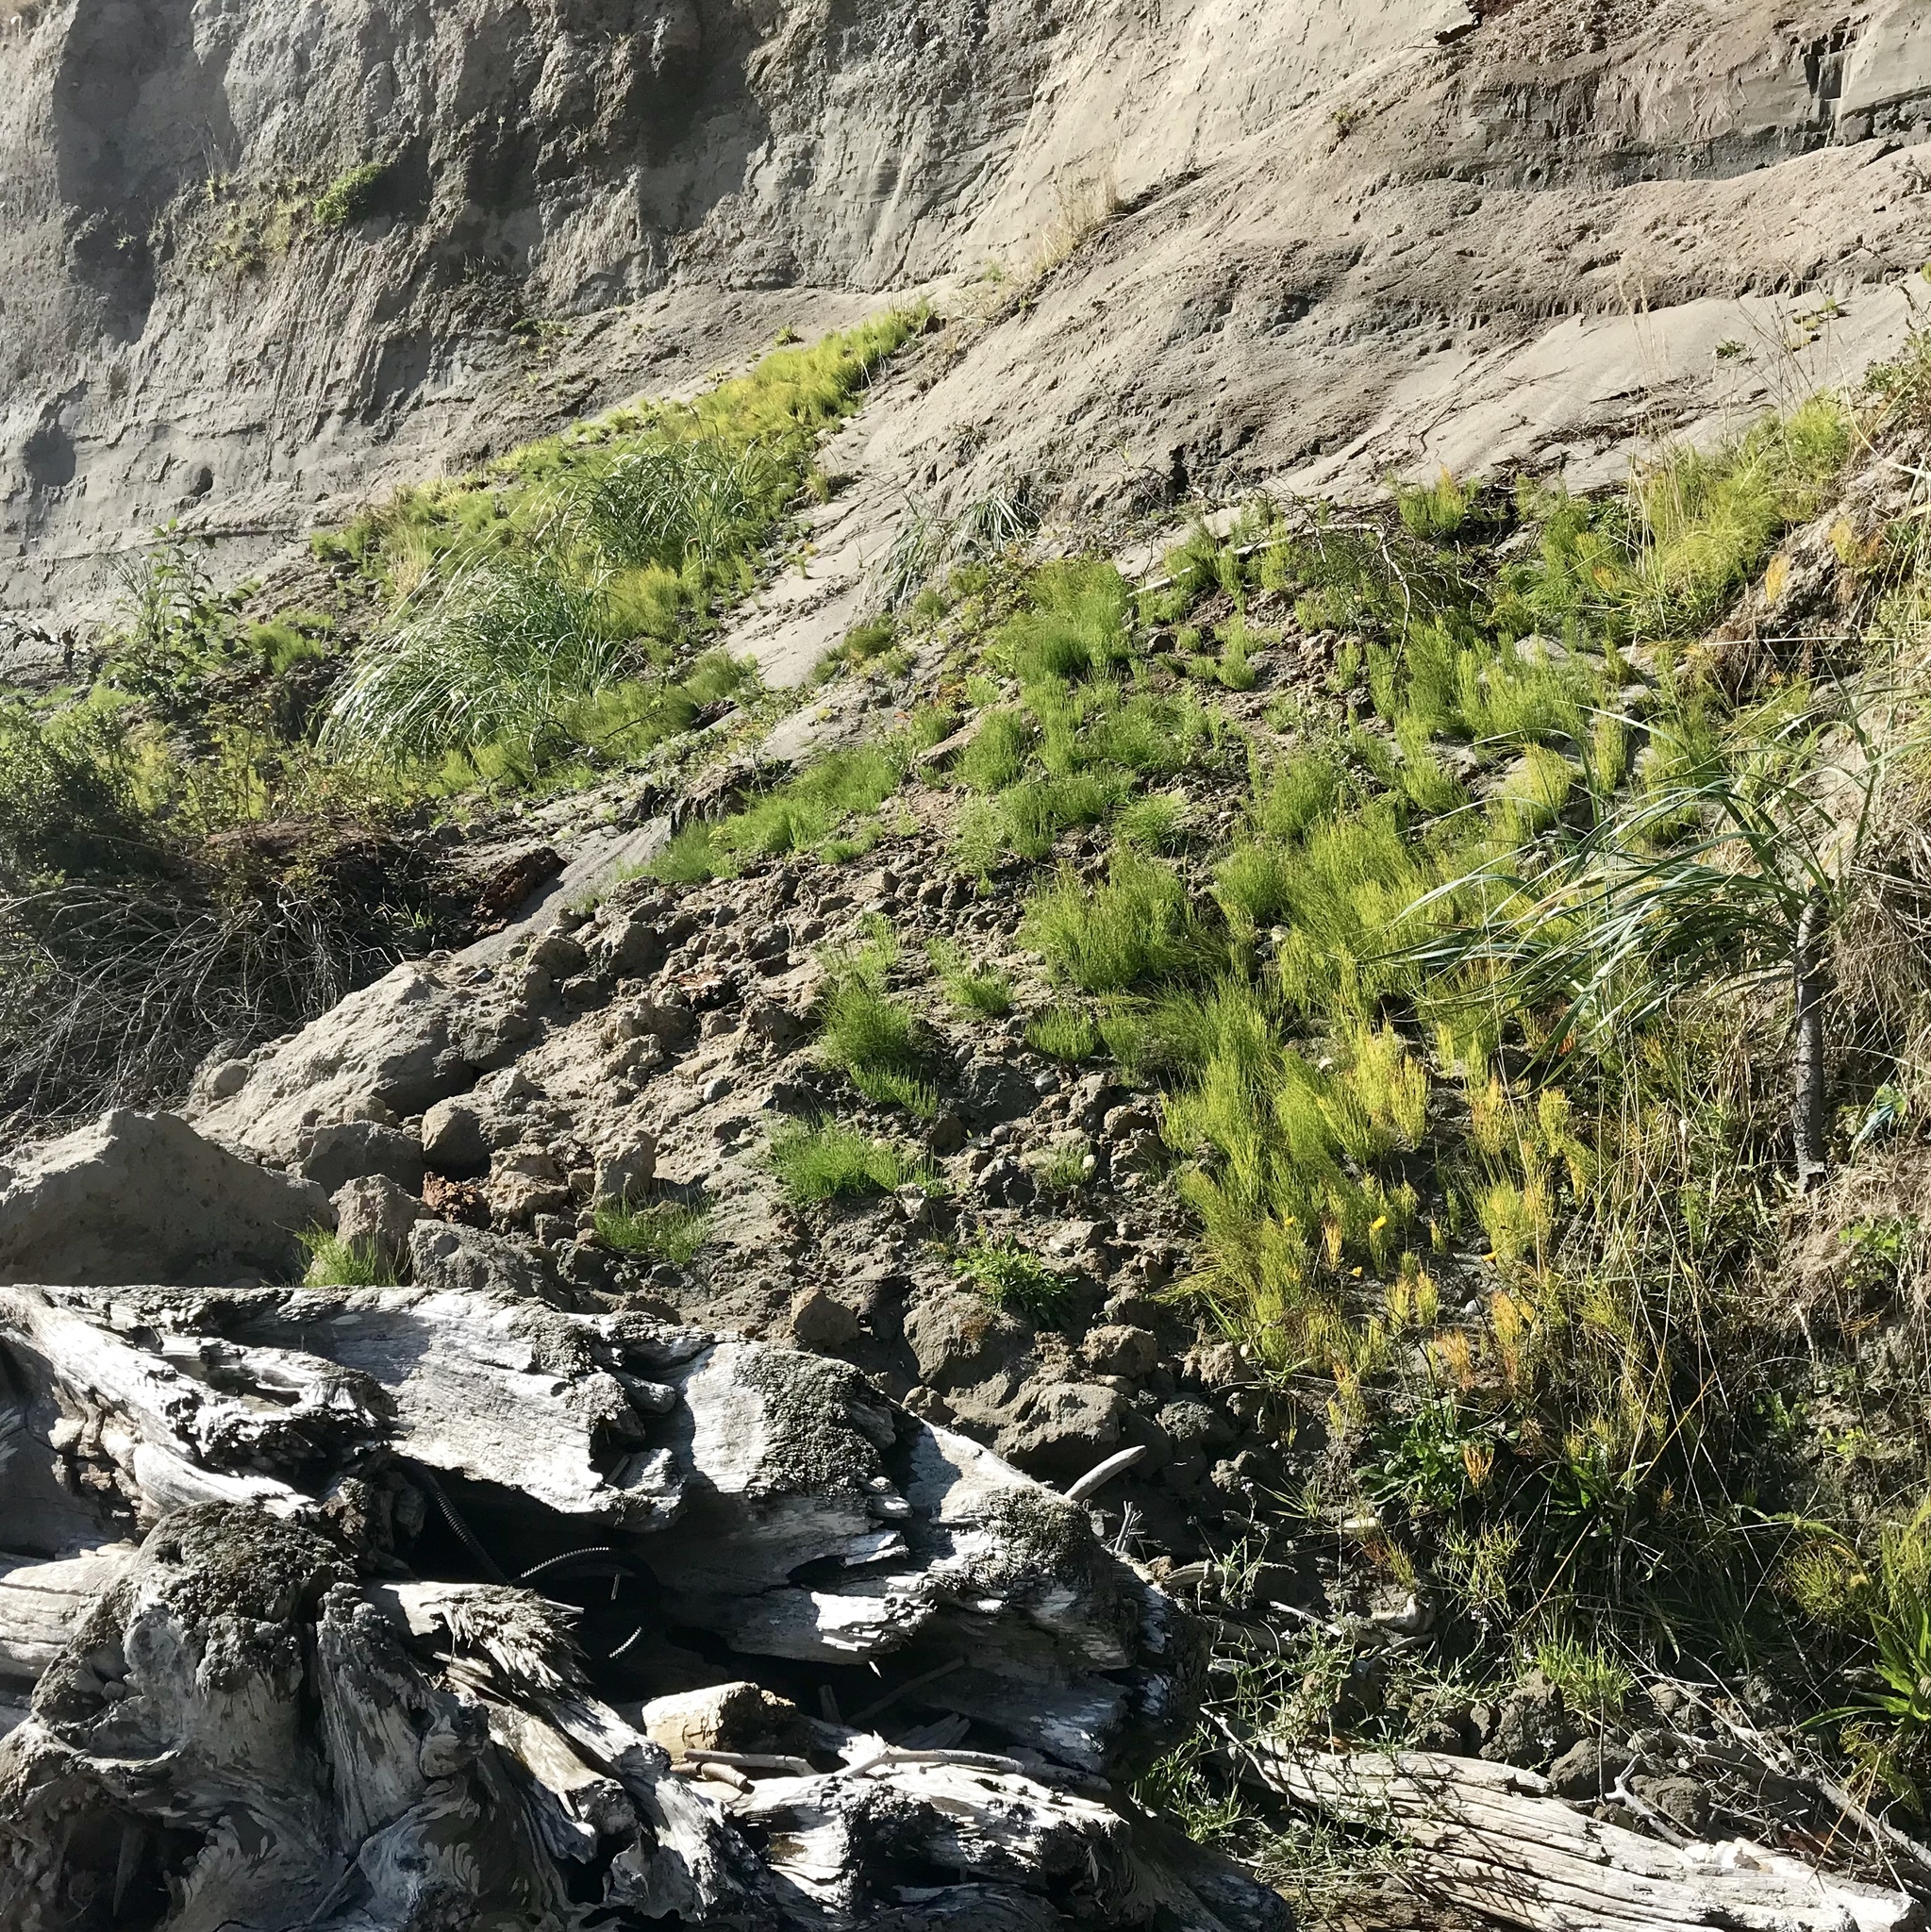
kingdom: Plantae
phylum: Tracheophyta
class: Polypodiopsida
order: Equisetales
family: Equisetaceae
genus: Equisetum
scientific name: Equisetum telmateia
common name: Great horsetail
